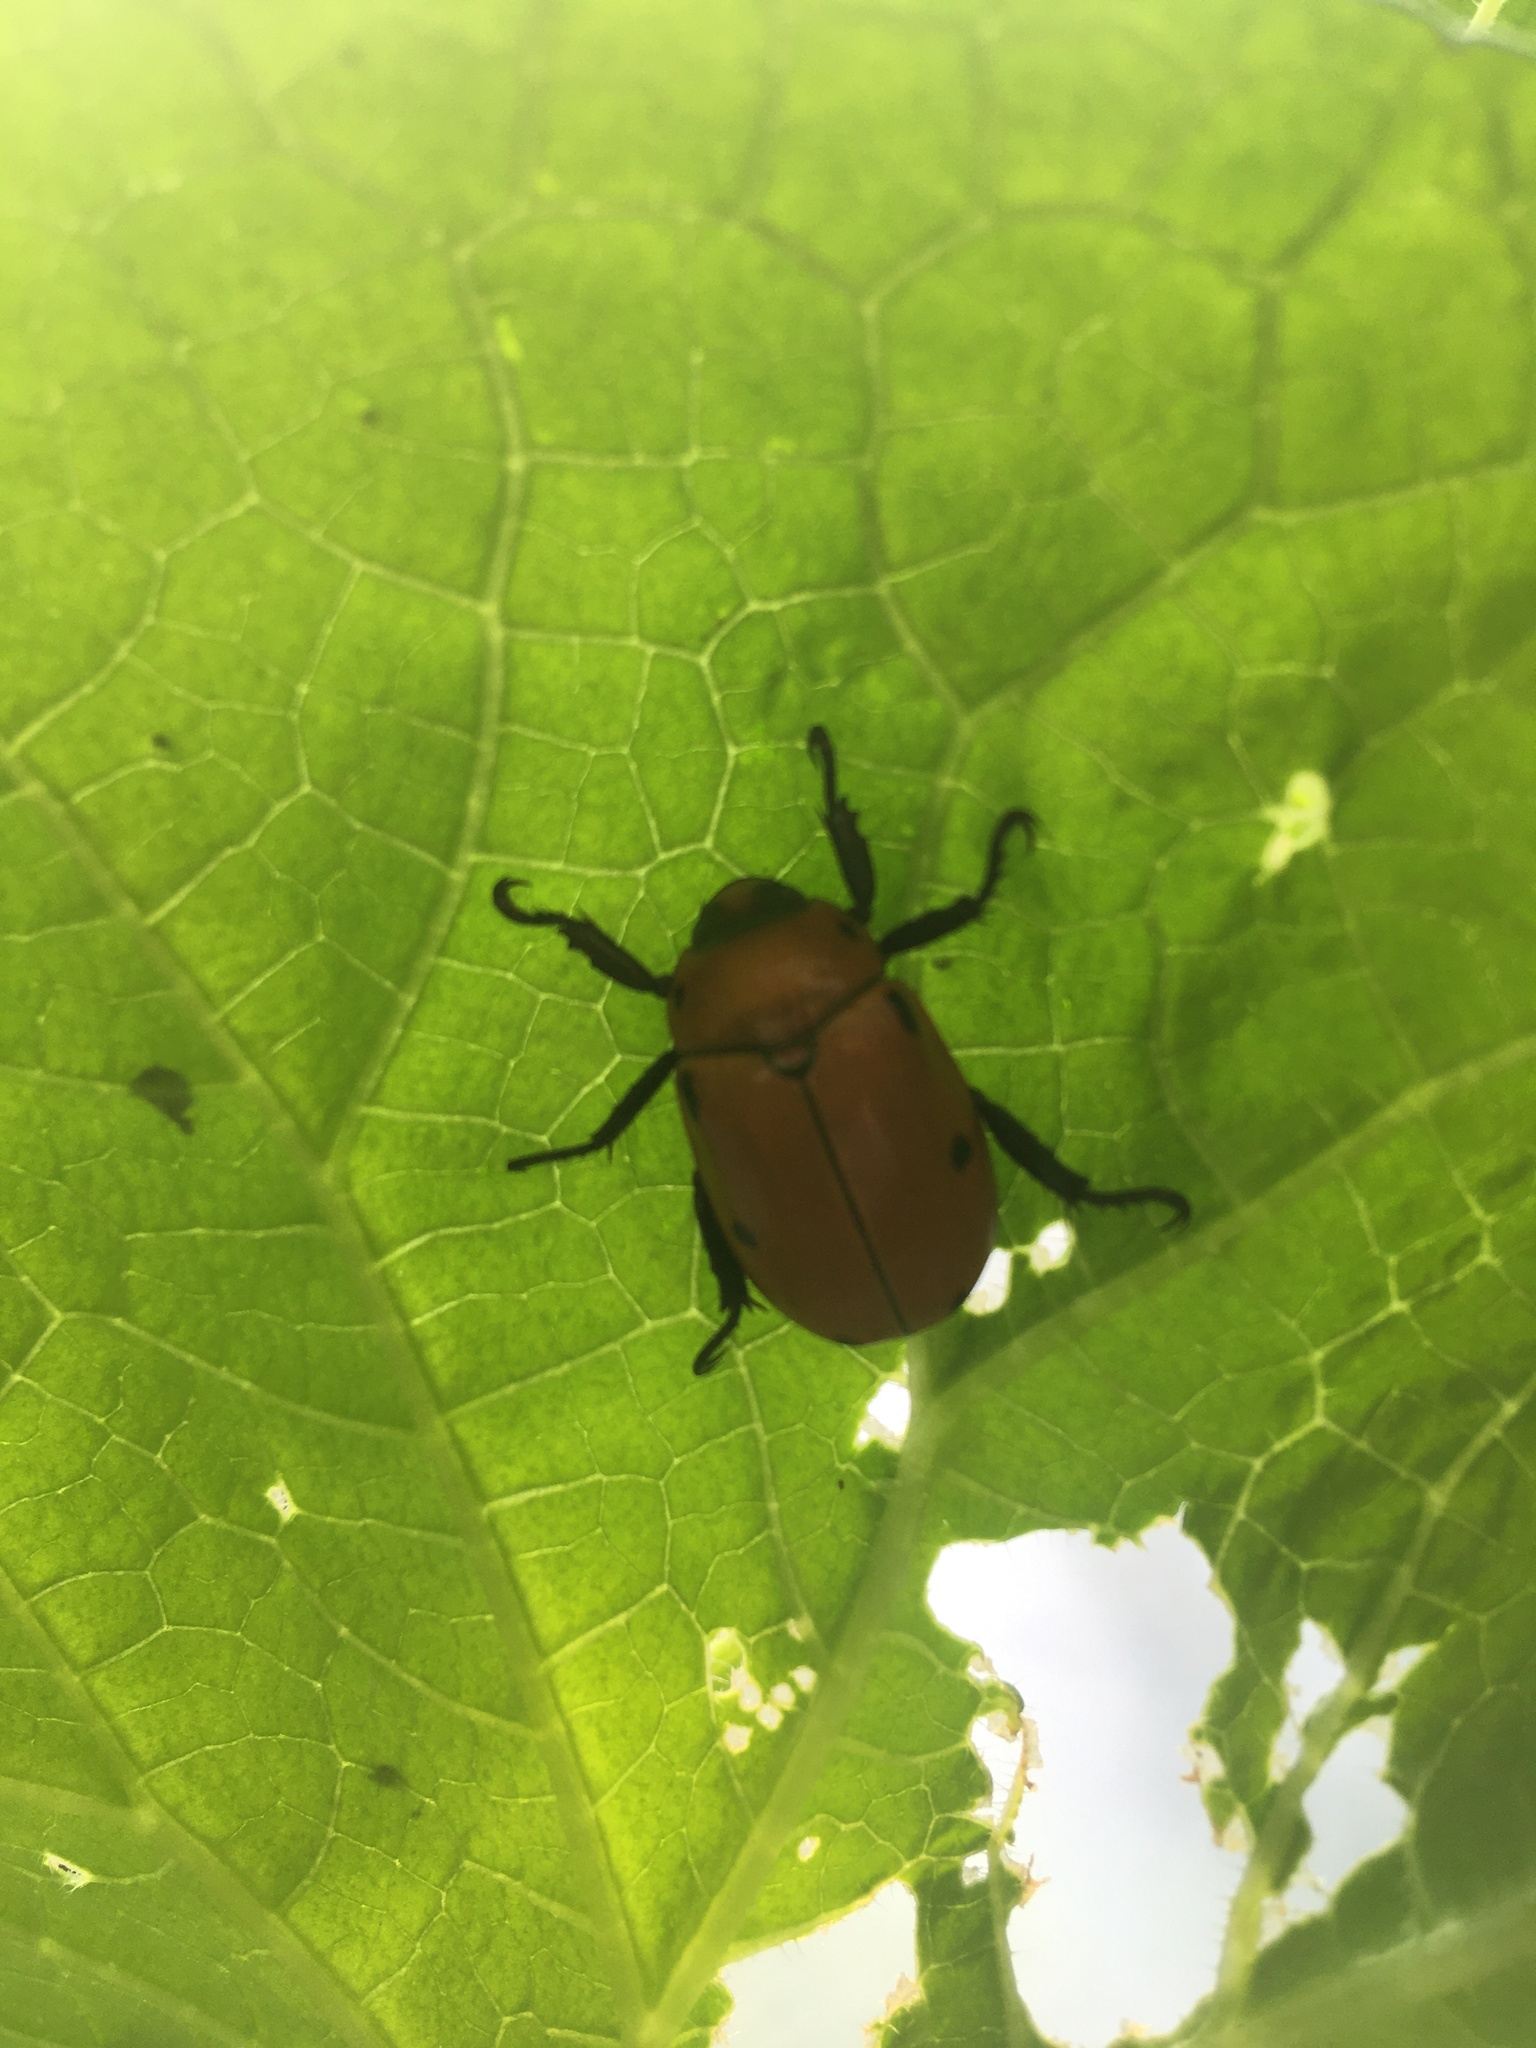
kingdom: Animalia
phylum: Arthropoda
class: Insecta
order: Coleoptera
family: Scarabaeidae
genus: Pelidnota
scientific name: Pelidnota punctata
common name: Grapevine beetle
